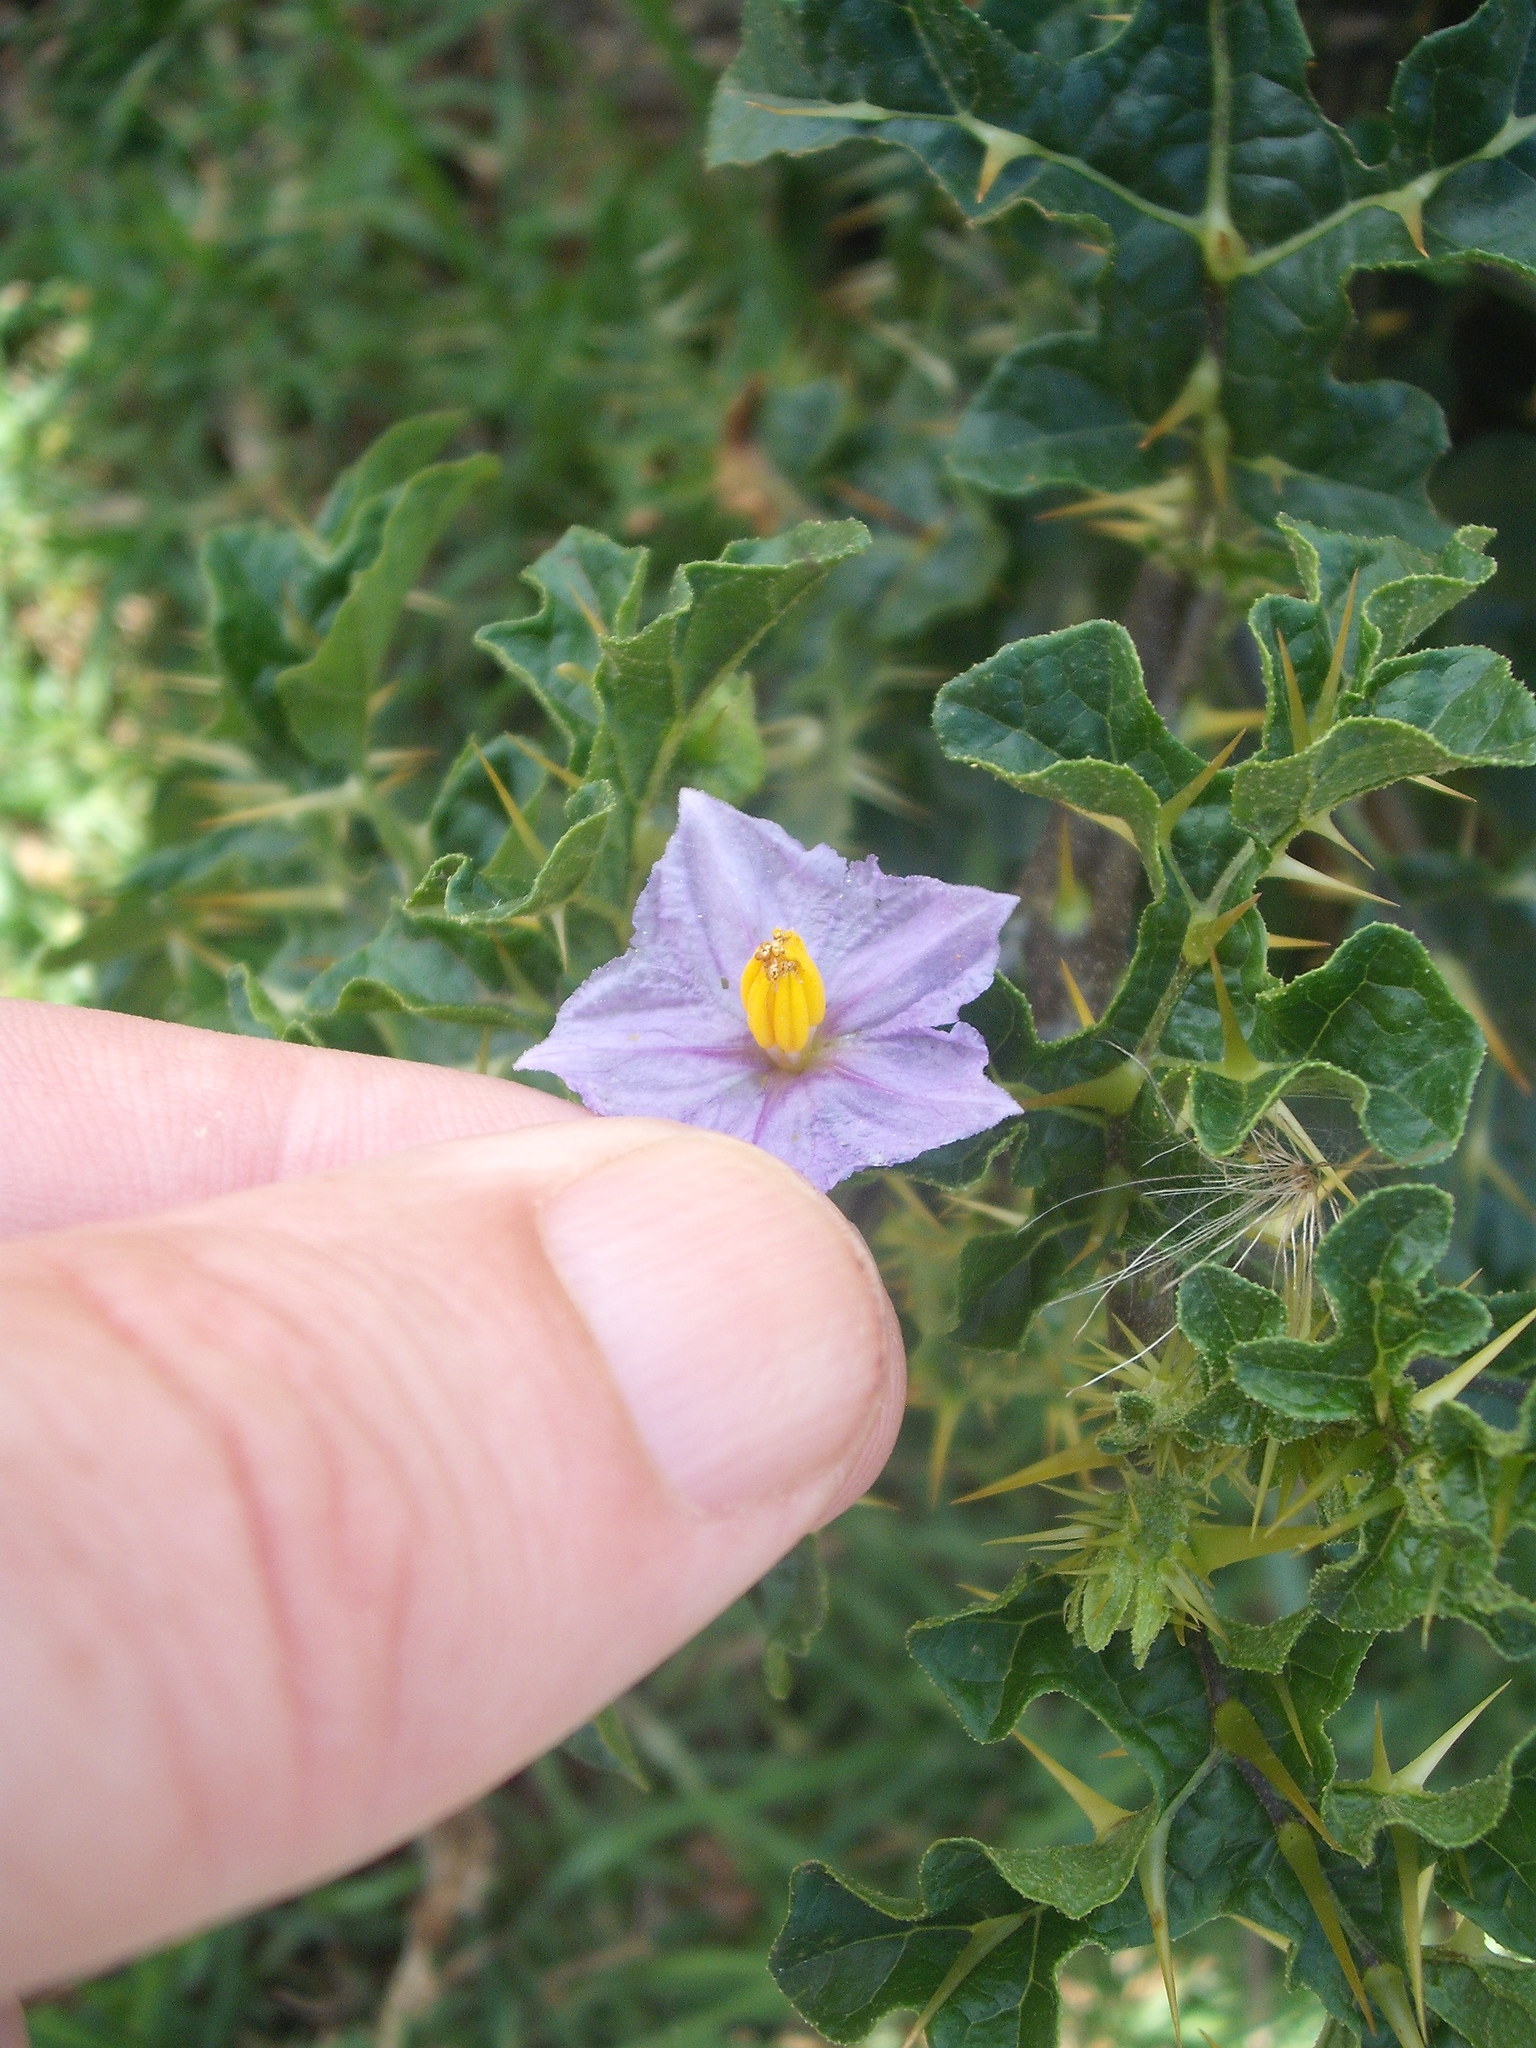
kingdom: Plantae
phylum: Tracheophyta
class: Magnoliopsida
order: Solanales
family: Solanaceae
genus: Solanum
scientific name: Solanum linnaeanum
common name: Nightshade
